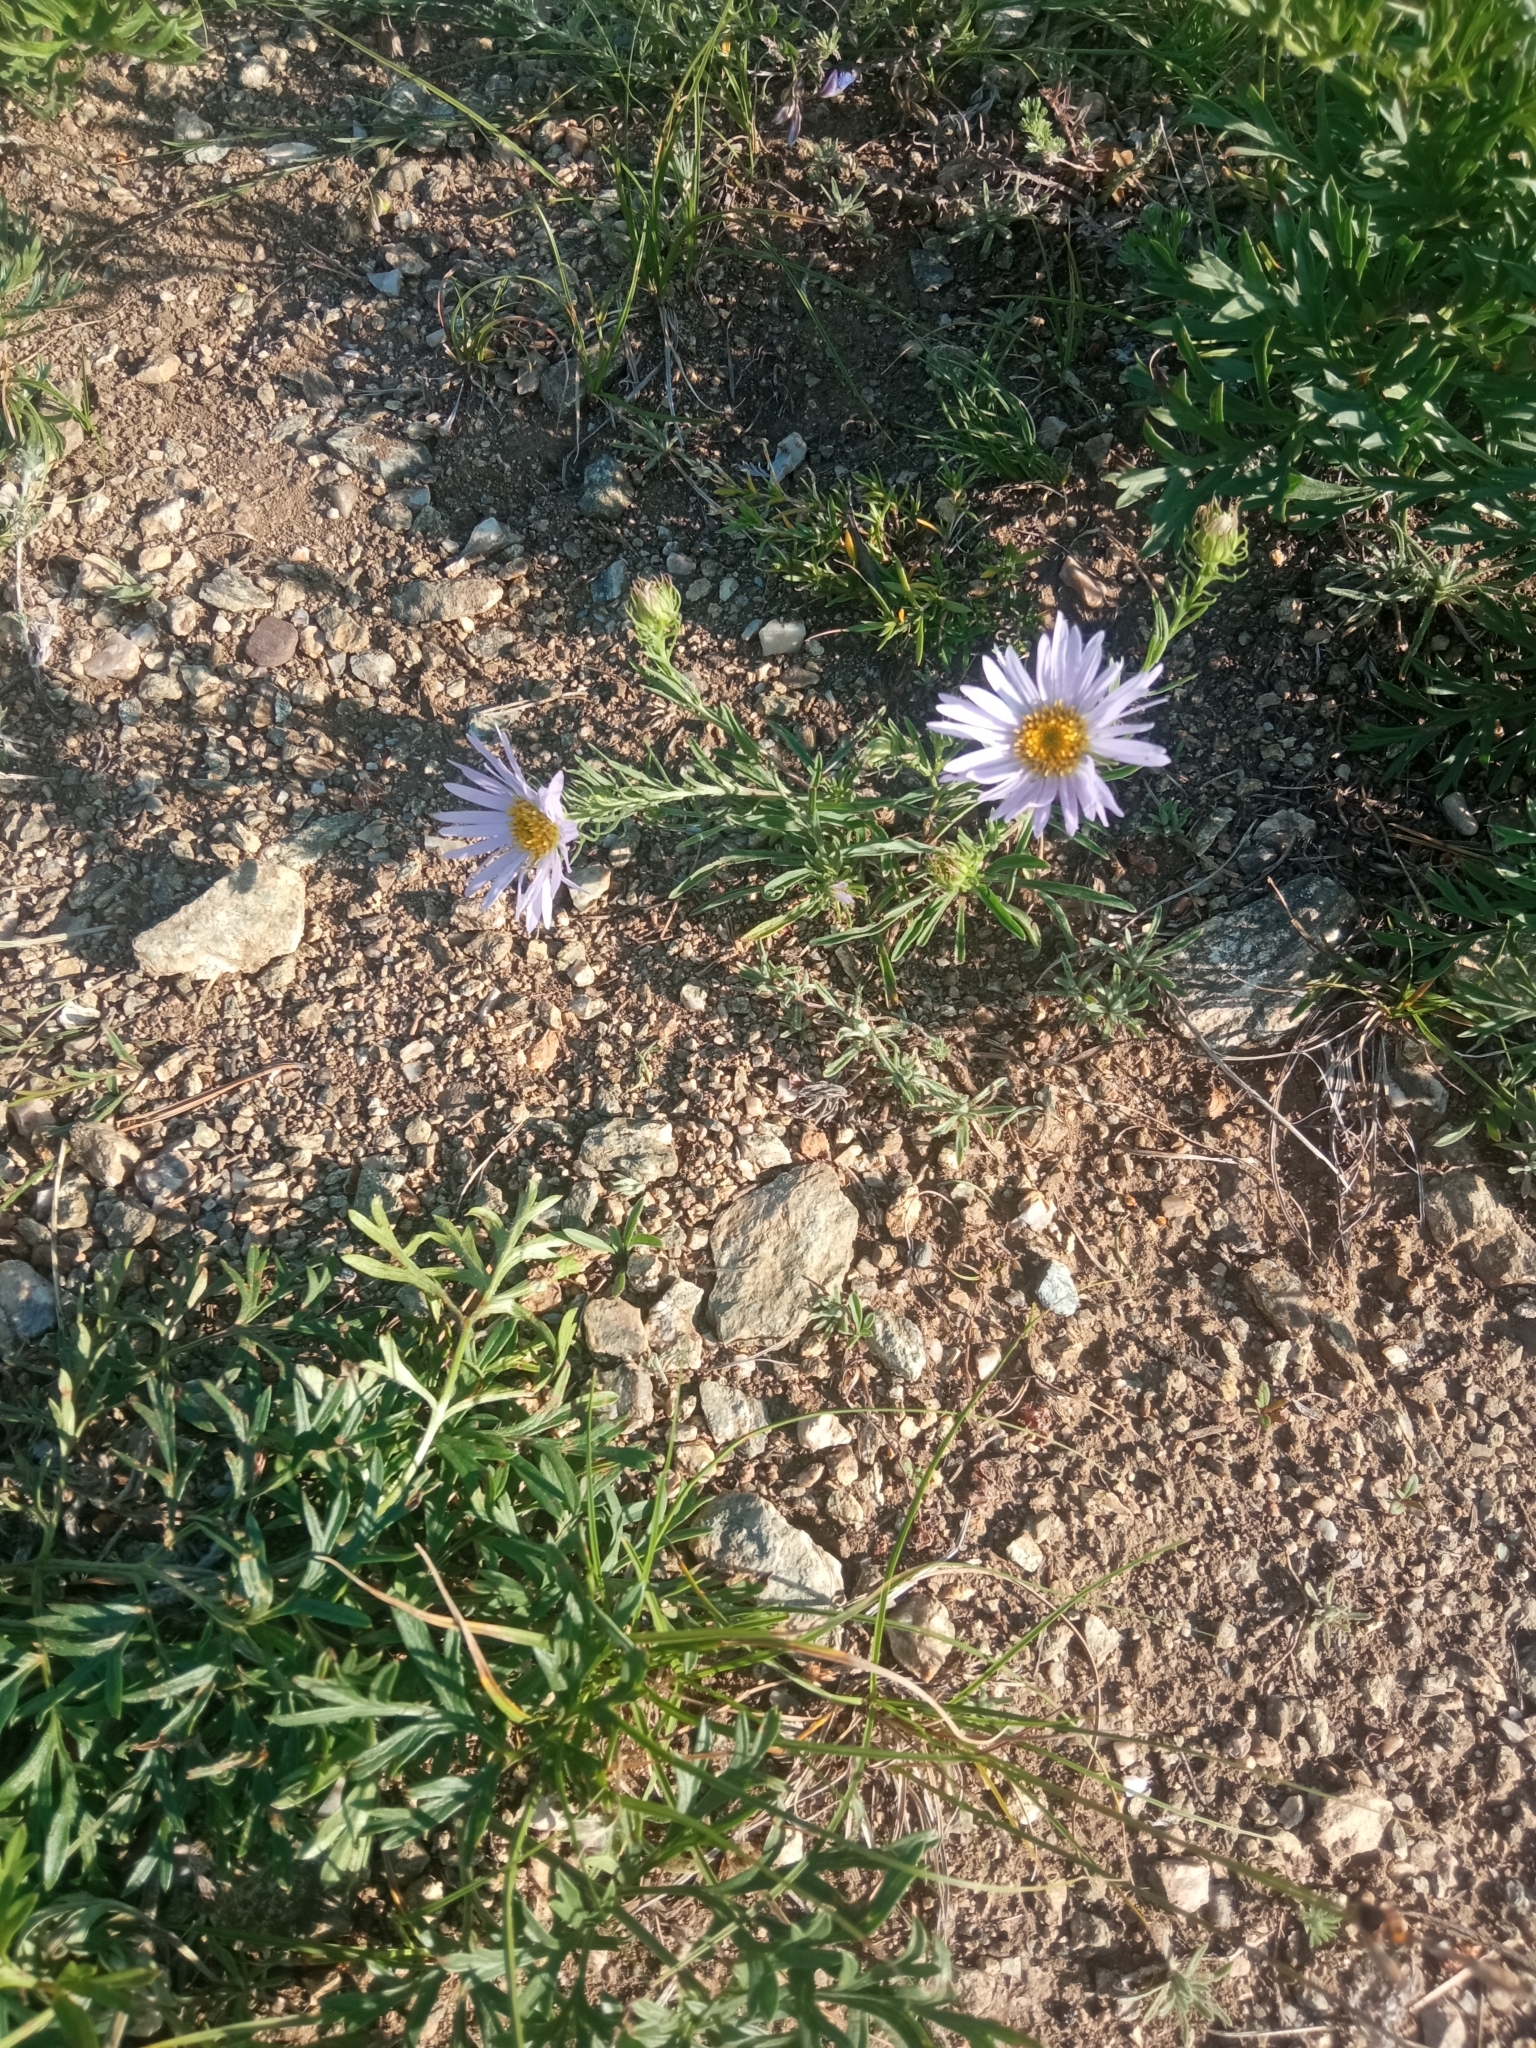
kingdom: Plantae
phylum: Tracheophyta
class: Magnoliopsida
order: Asterales
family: Asteraceae
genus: Heteropappus
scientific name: Heteropappus altaicus
